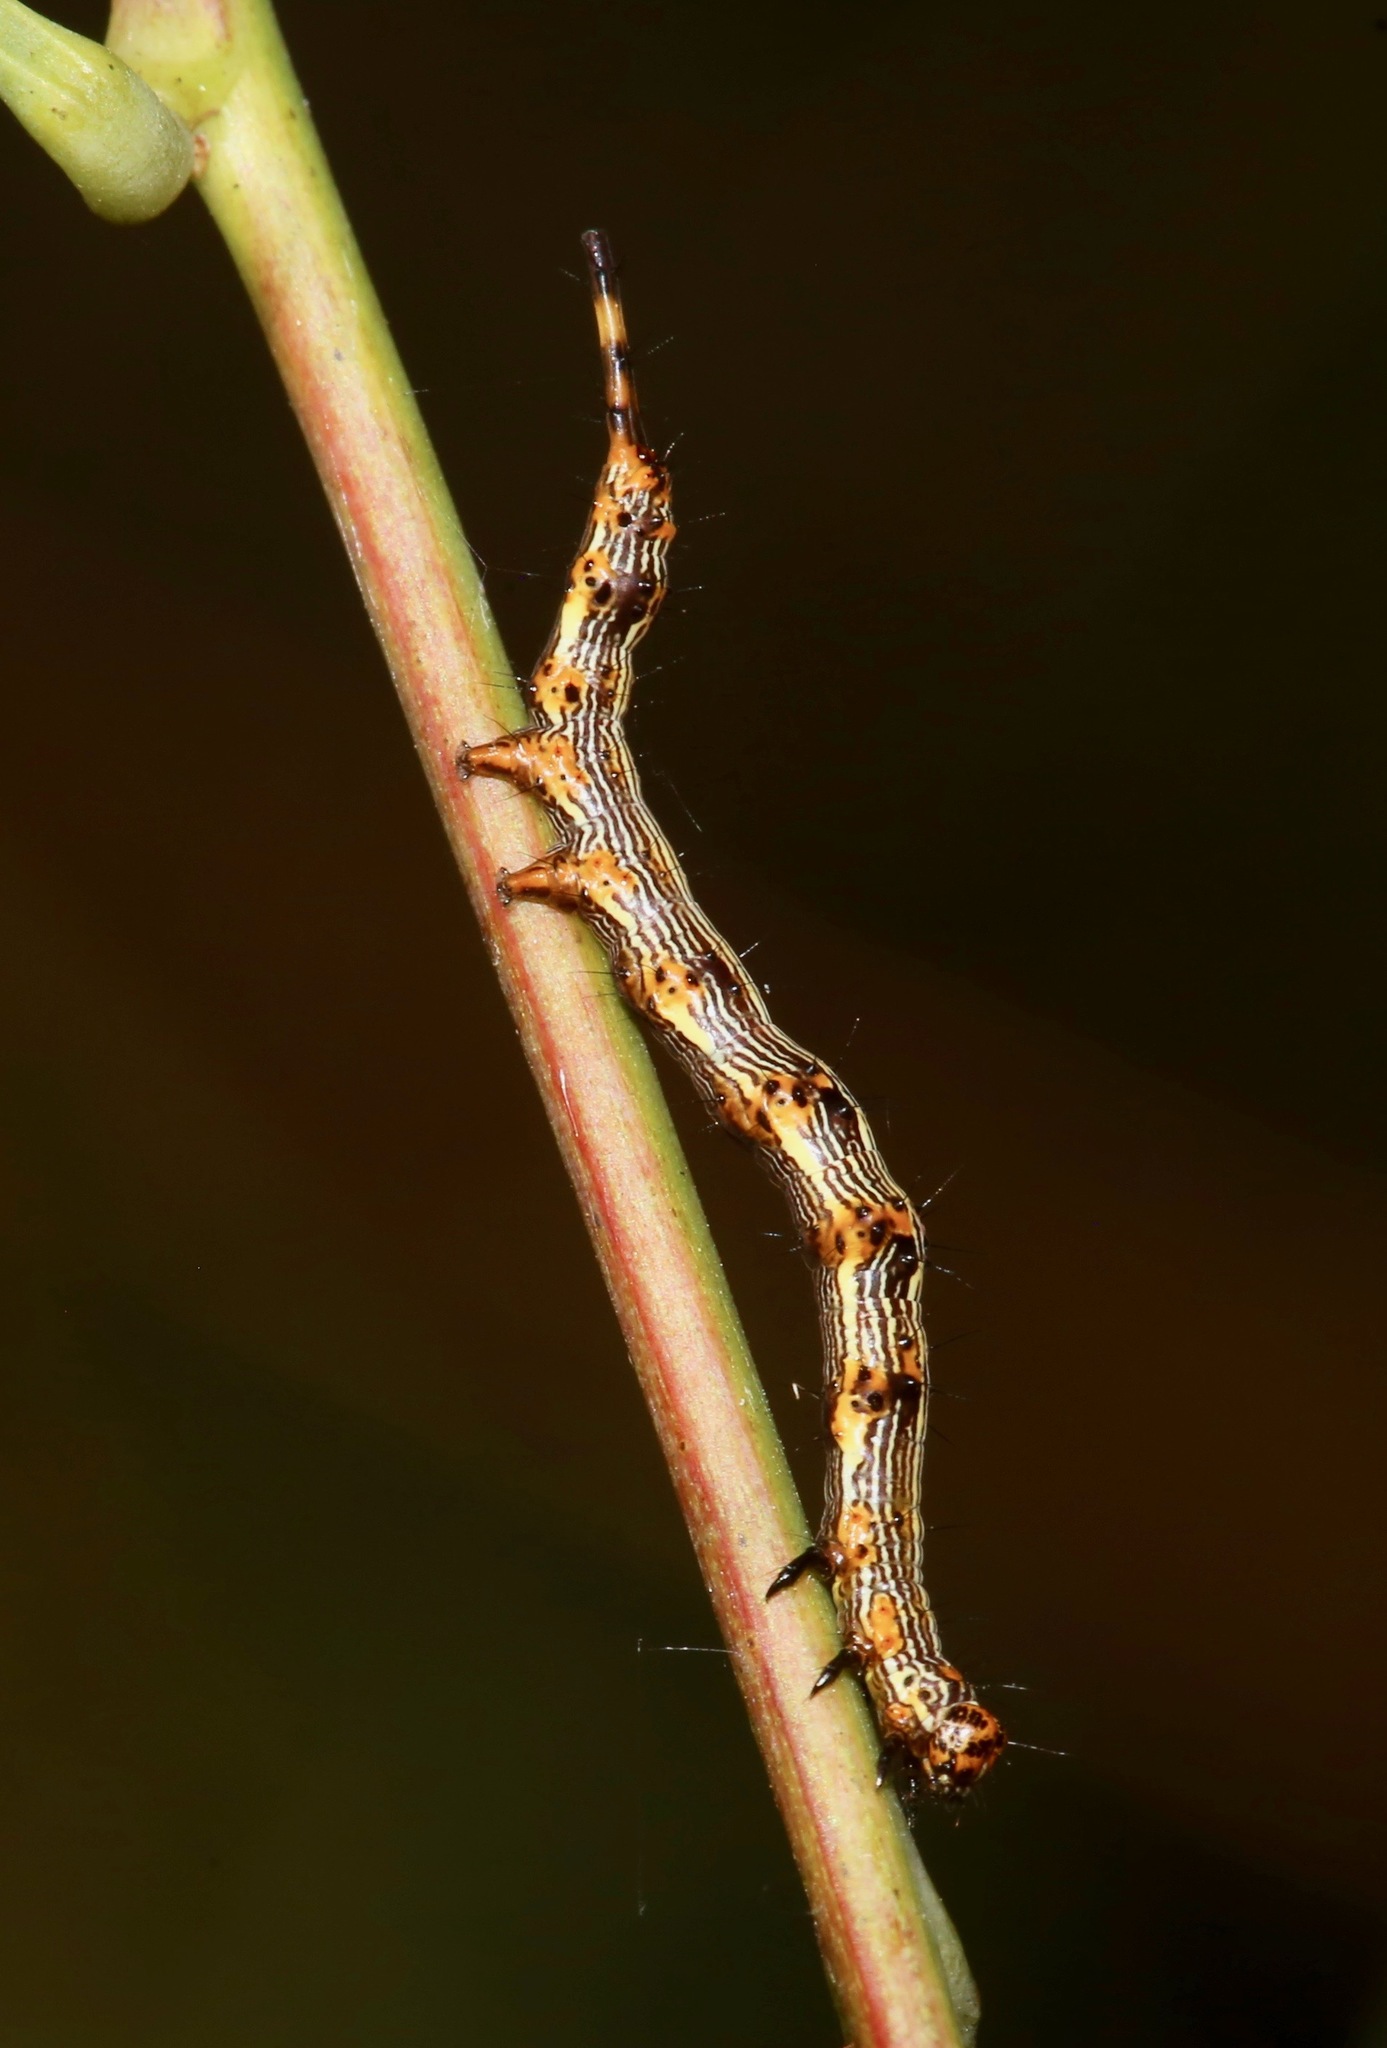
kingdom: Animalia
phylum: Arthropoda
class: Insecta
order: Lepidoptera
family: Erebidae
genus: Selenisa
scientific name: Selenisa sueroides
